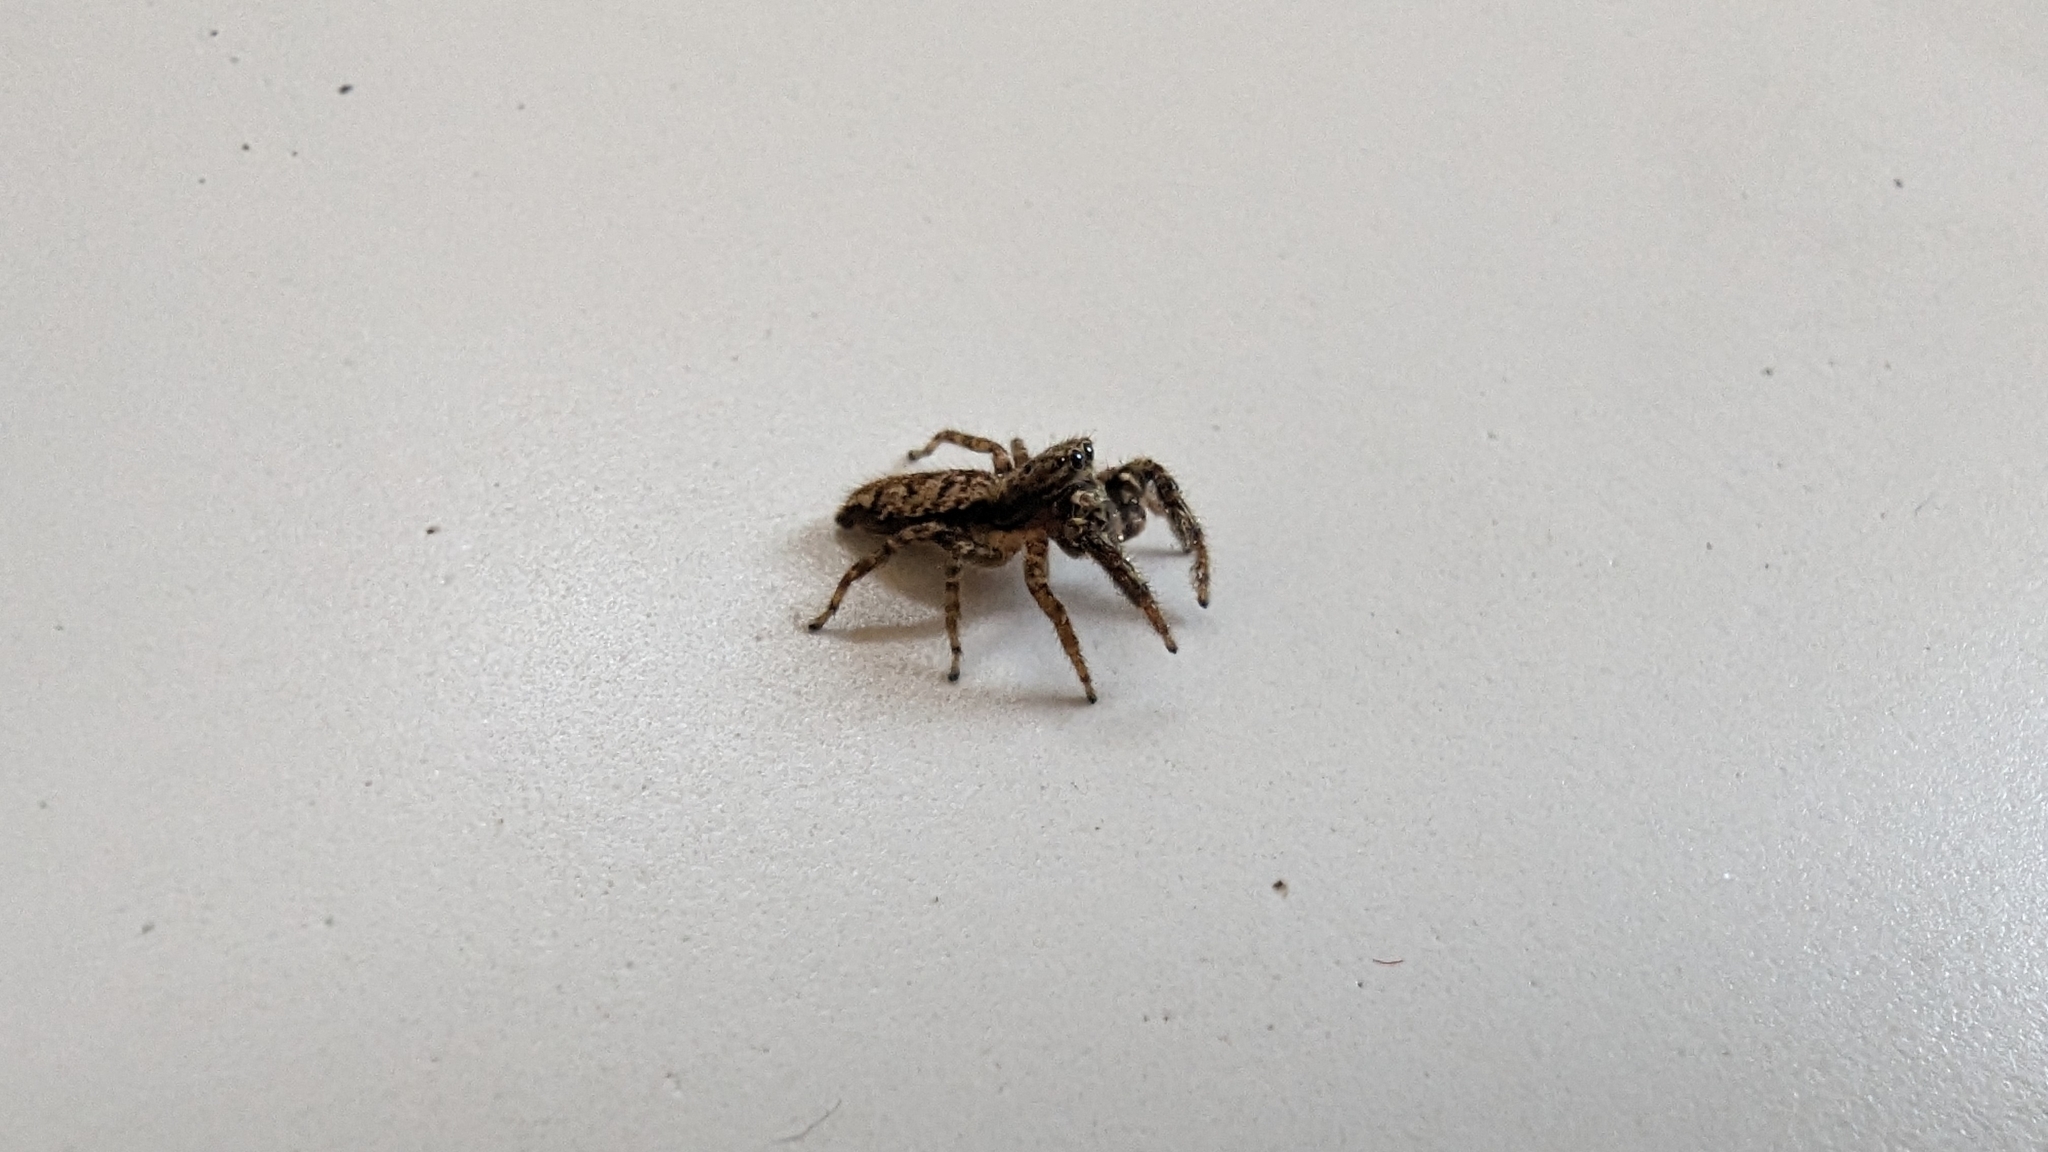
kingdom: Animalia
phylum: Arthropoda
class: Arachnida
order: Araneae
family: Salticidae
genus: Marpissa
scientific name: Marpissa muscosa
